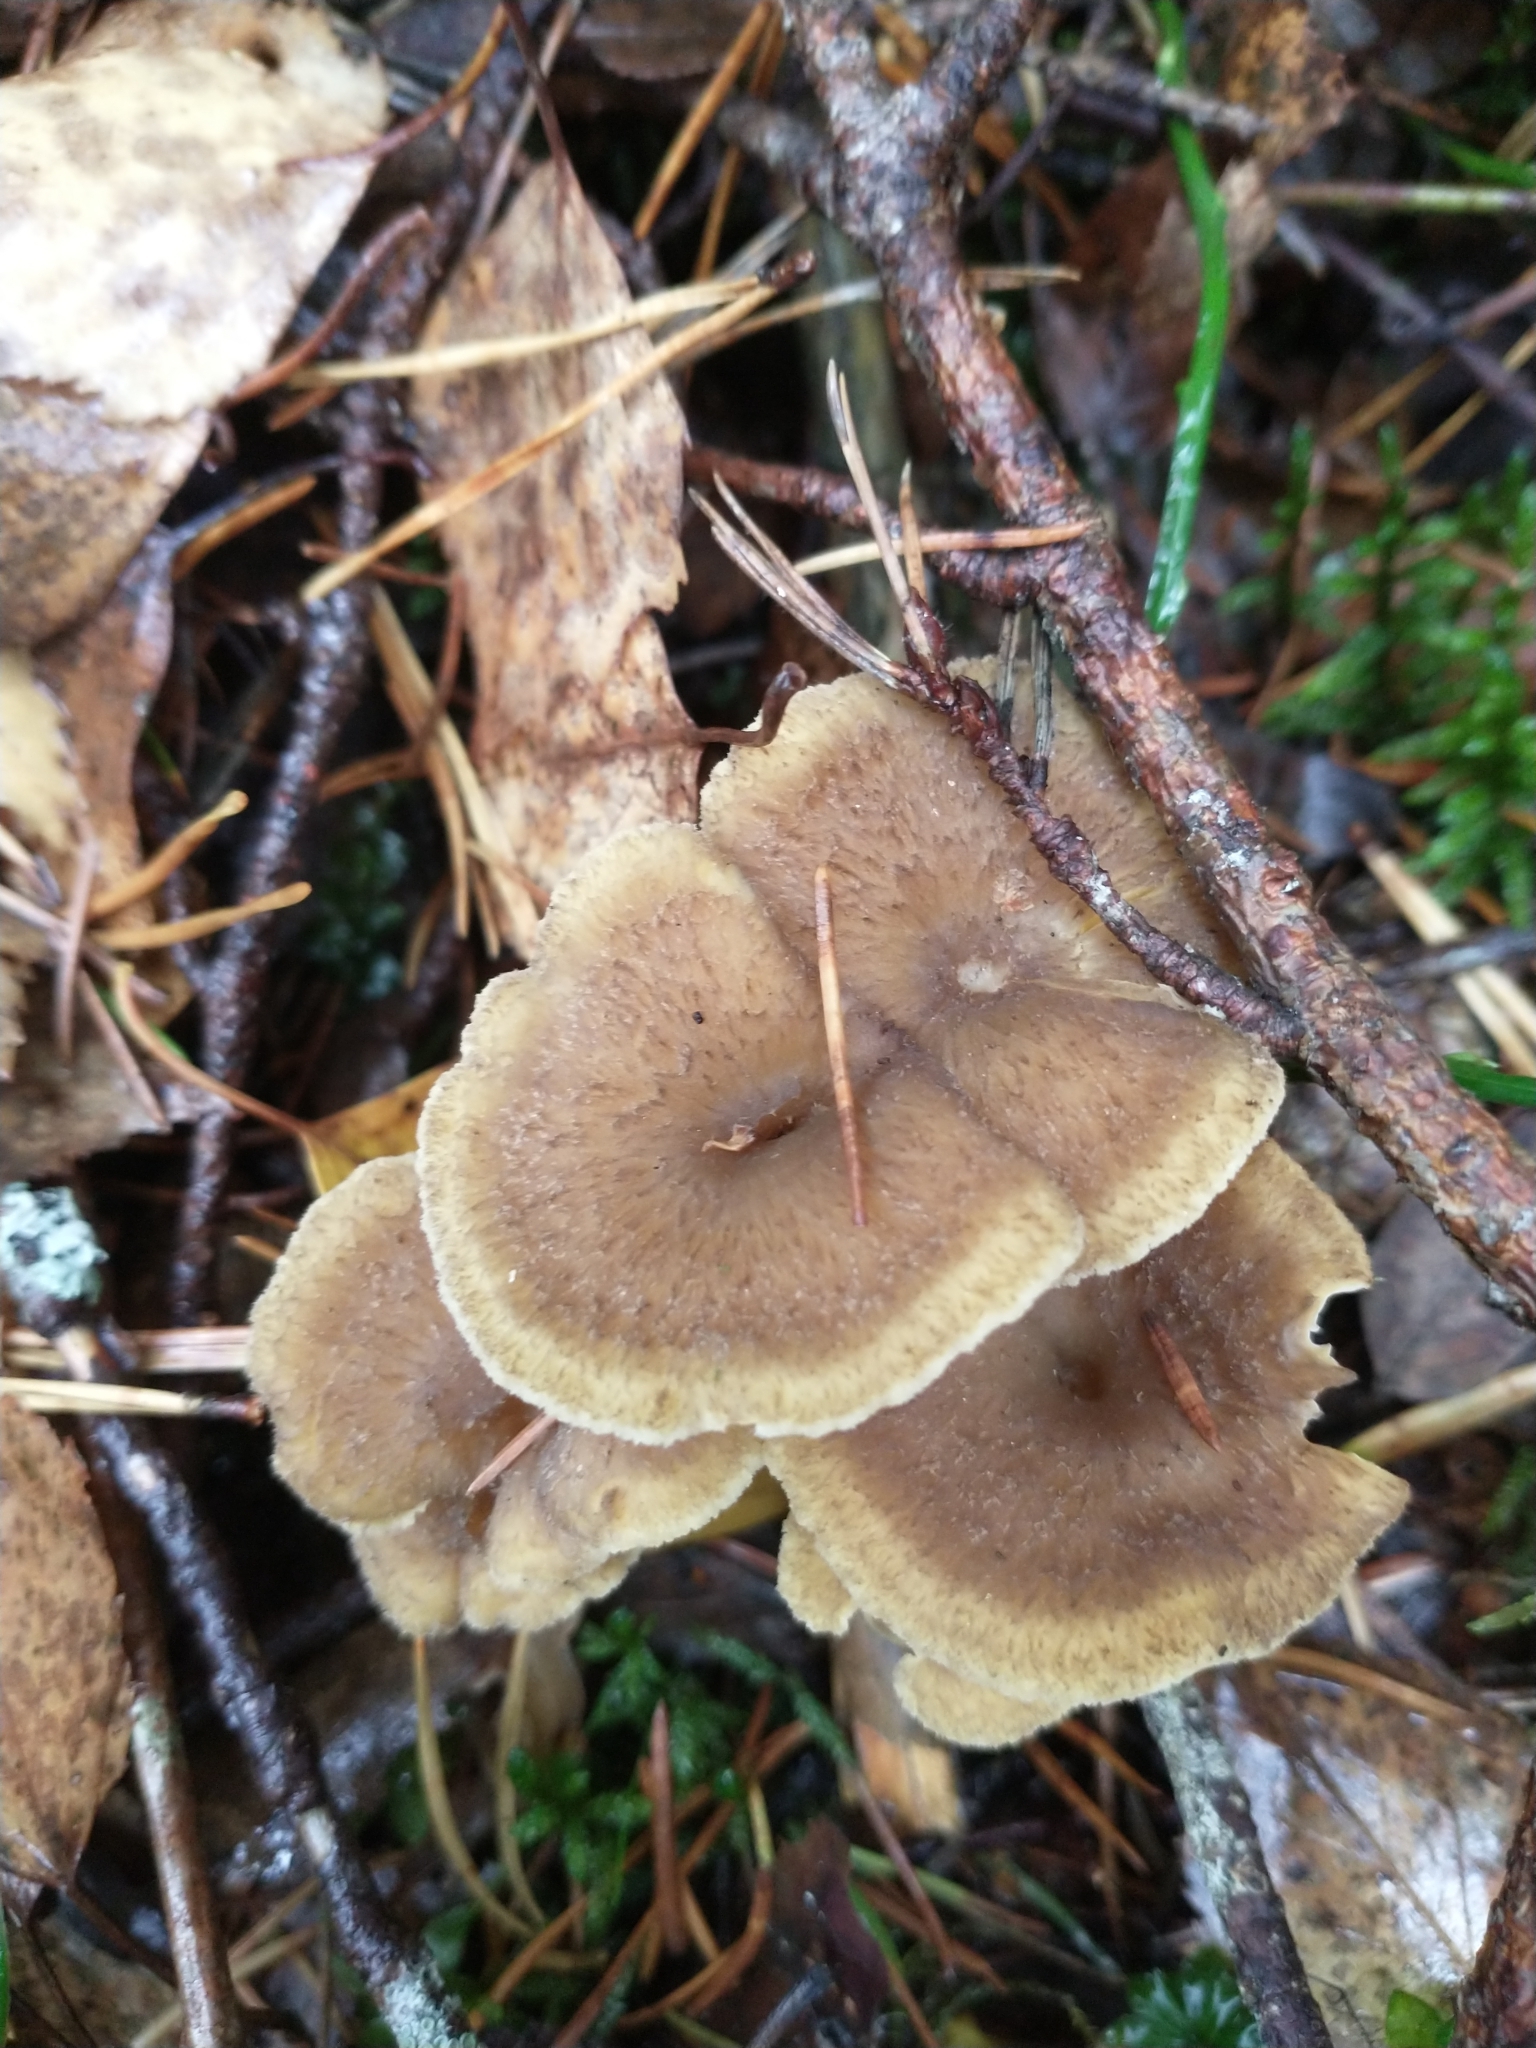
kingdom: Fungi
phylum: Basidiomycota
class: Agaricomycetes
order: Cantharellales
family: Hydnaceae
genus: Craterellus
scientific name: Craterellus tubaeformis
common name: Yellowfoot
